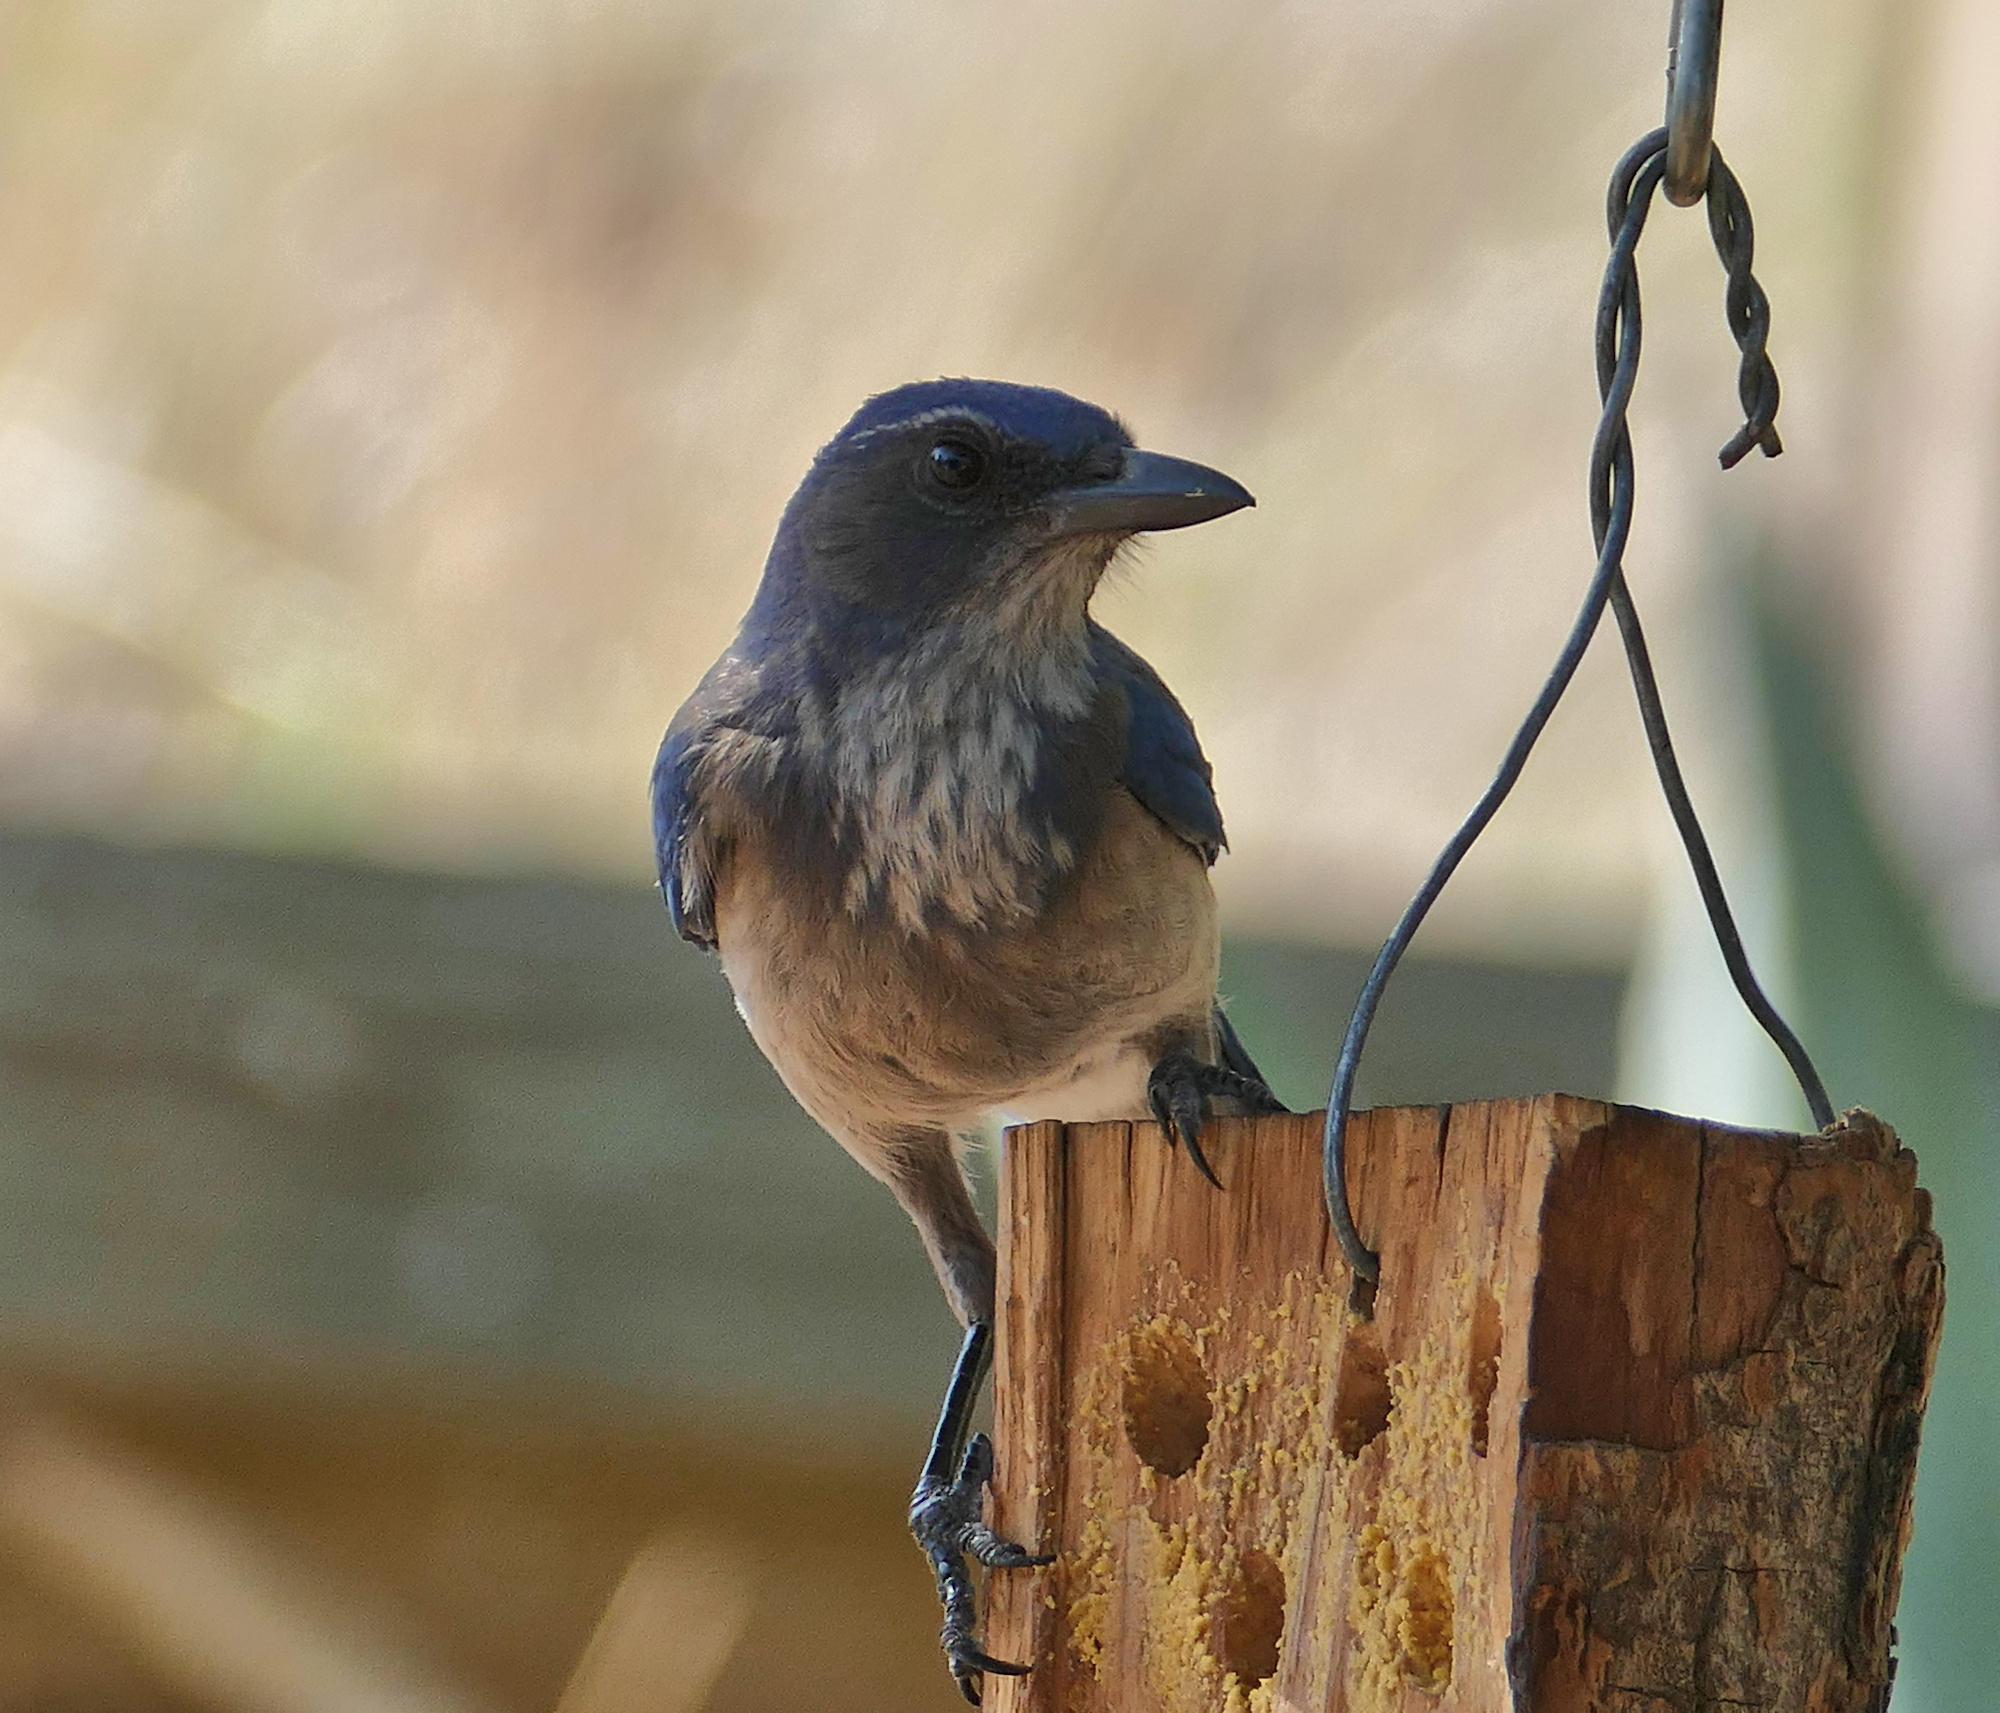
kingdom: Animalia
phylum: Chordata
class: Aves
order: Passeriformes
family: Corvidae
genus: Aphelocoma
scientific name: Aphelocoma woodhouseii
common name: Woodhouse's scrub-jay
